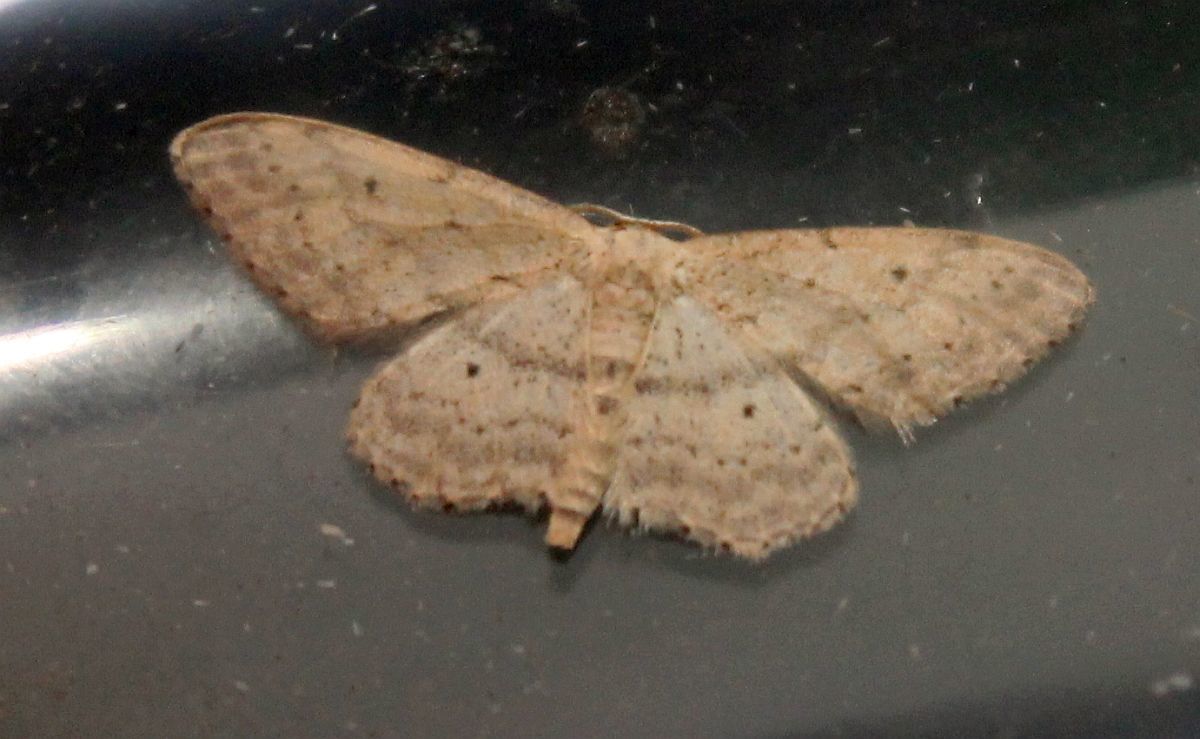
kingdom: Animalia
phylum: Arthropoda
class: Insecta
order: Lepidoptera
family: Geometridae
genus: Idaea
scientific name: Idaea seriata
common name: Small dusty wave
